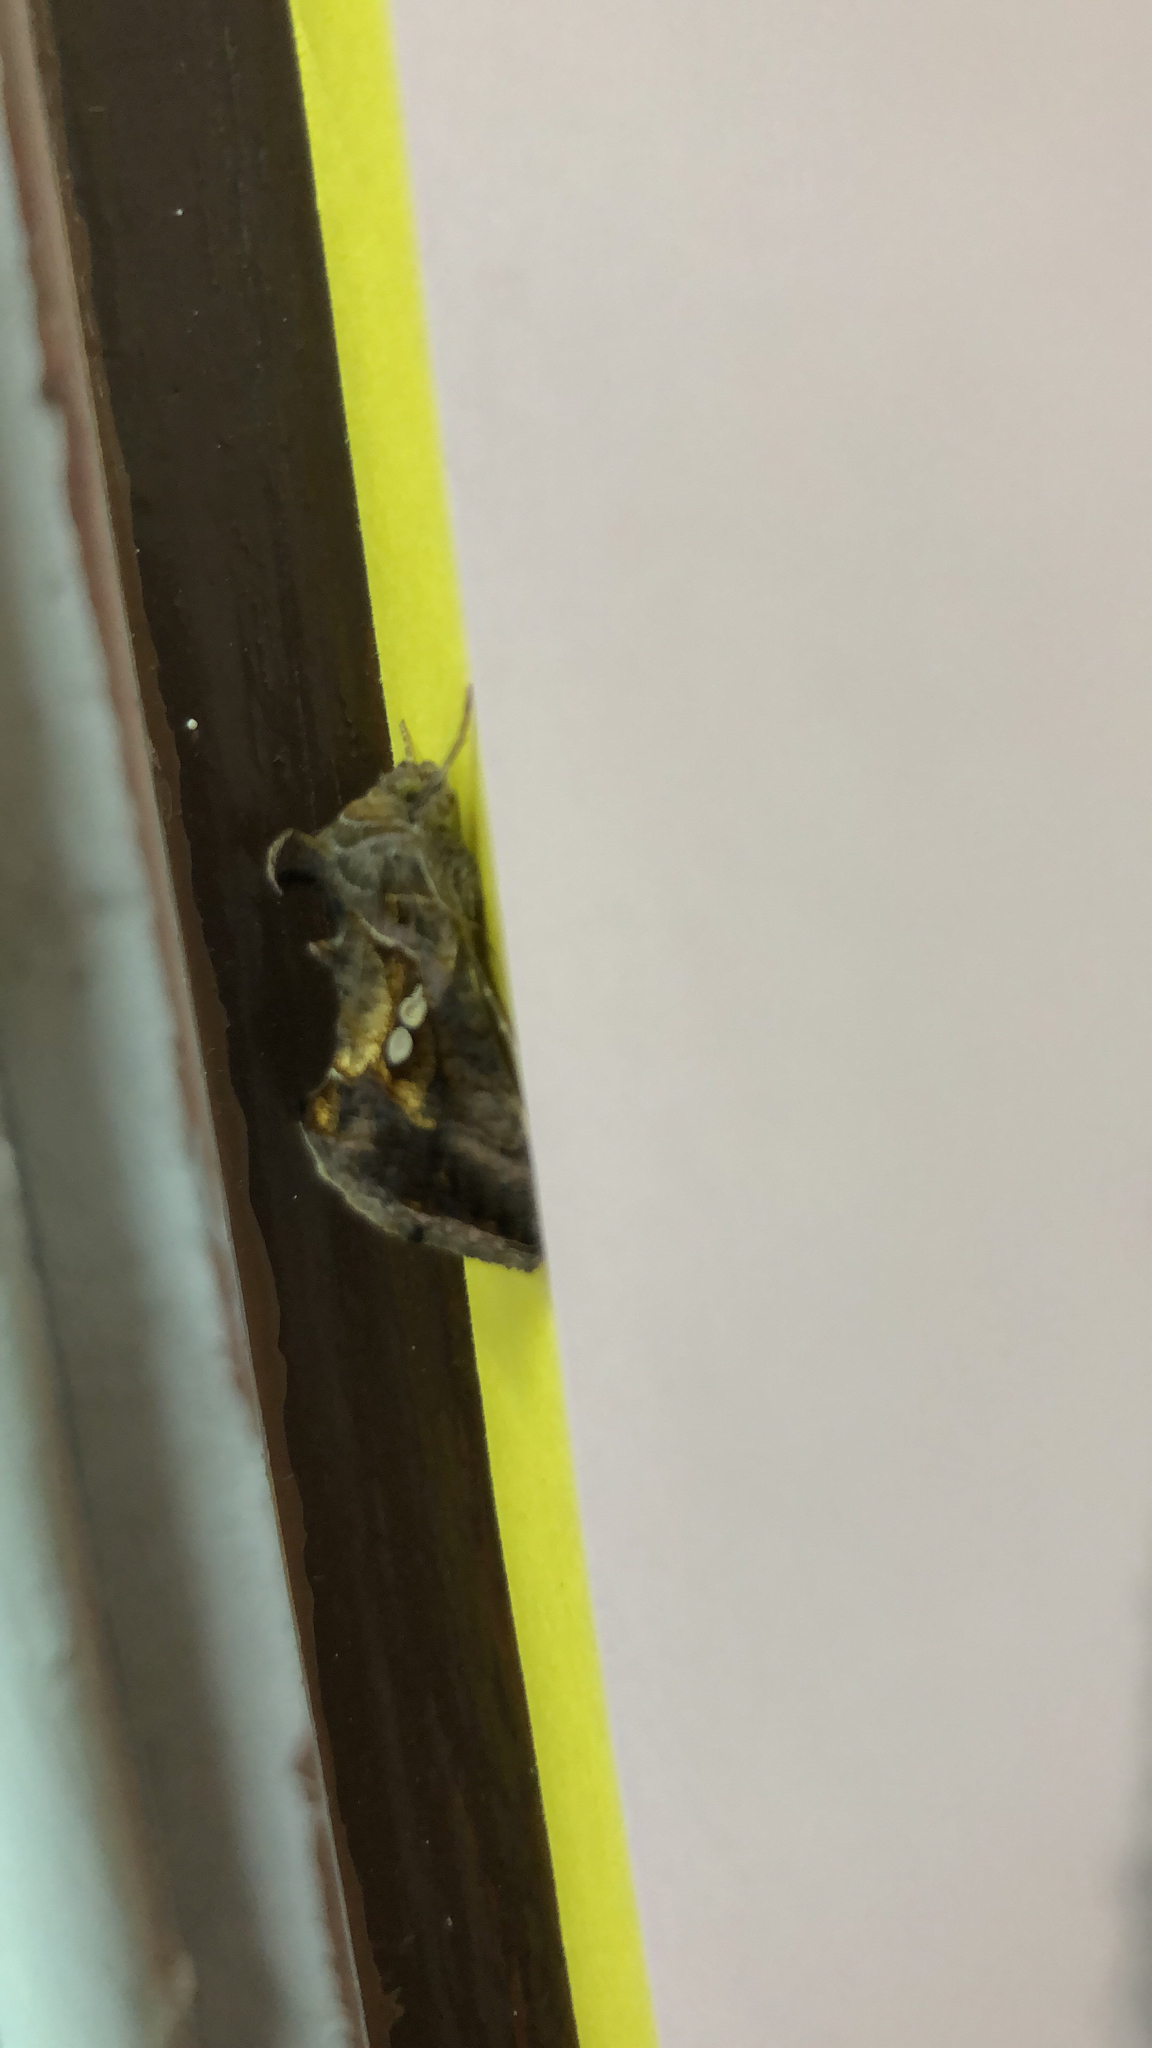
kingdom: Animalia
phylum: Arthropoda
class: Insecta
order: Lepidoptera
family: Noctuidae
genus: Chrysodeixis
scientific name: Chrysodeixis eriosoma
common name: Green garden looper
